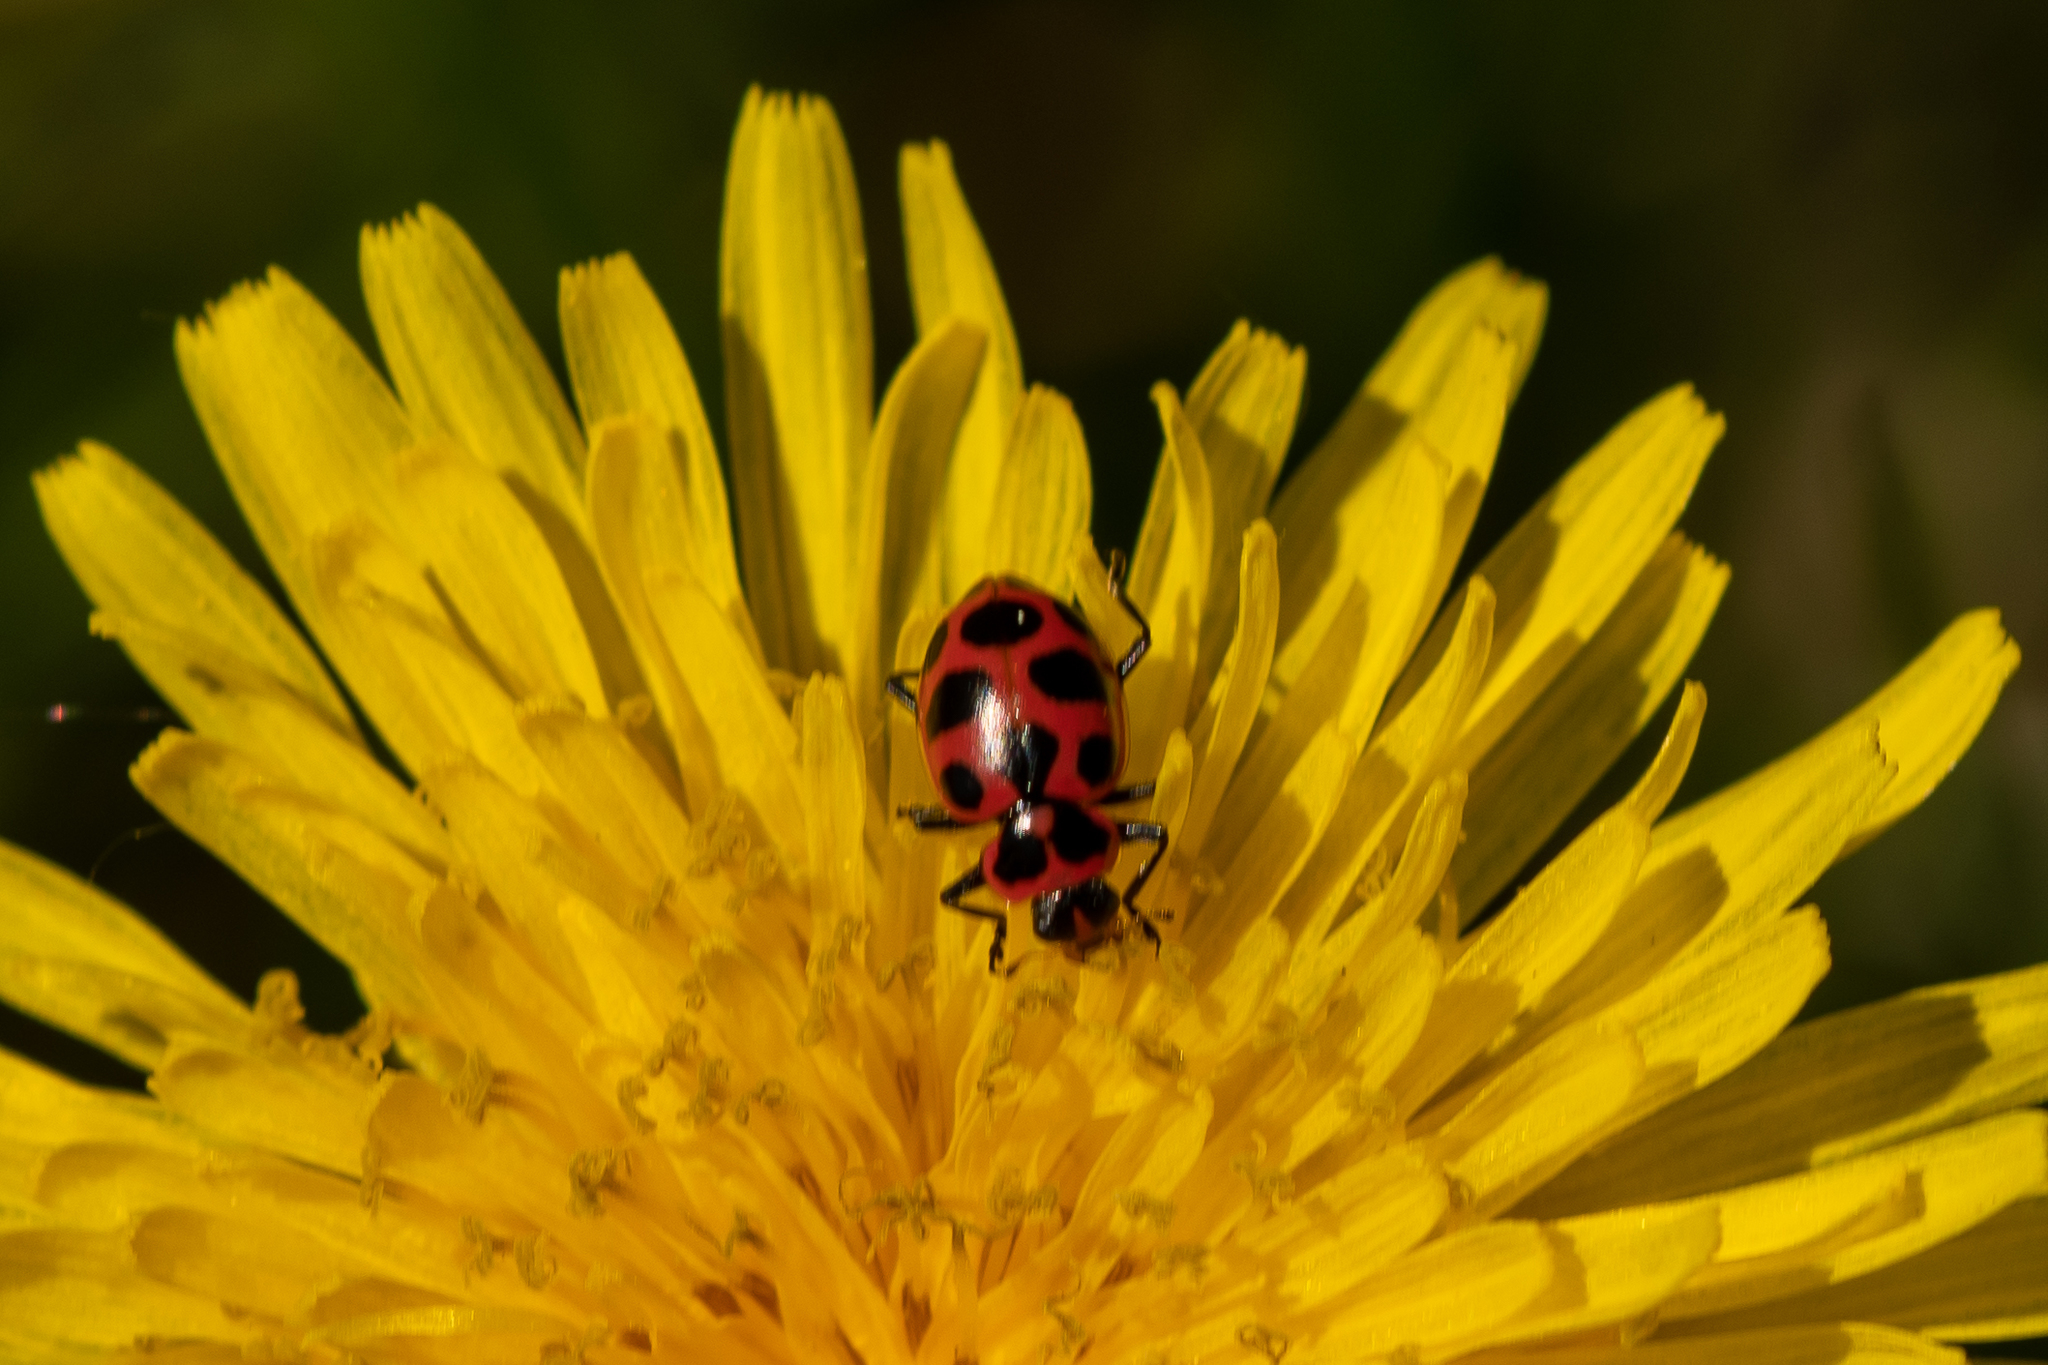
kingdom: Animalia
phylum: Arthropoda
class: Insecta
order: Coleoptera
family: Coccinellidae
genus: Coleomegilla
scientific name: Coleomegilla maculata
